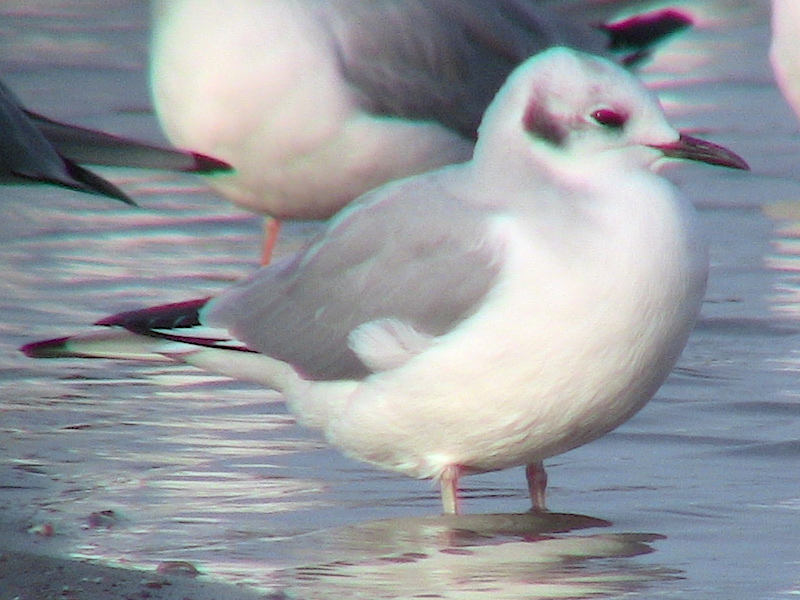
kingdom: Animalia
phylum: Chordata
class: Aves
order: Charadriiformes
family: Laridae
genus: Chroicocephalus
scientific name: Chroicocephalus philadelphia
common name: Bonaparte's gull
